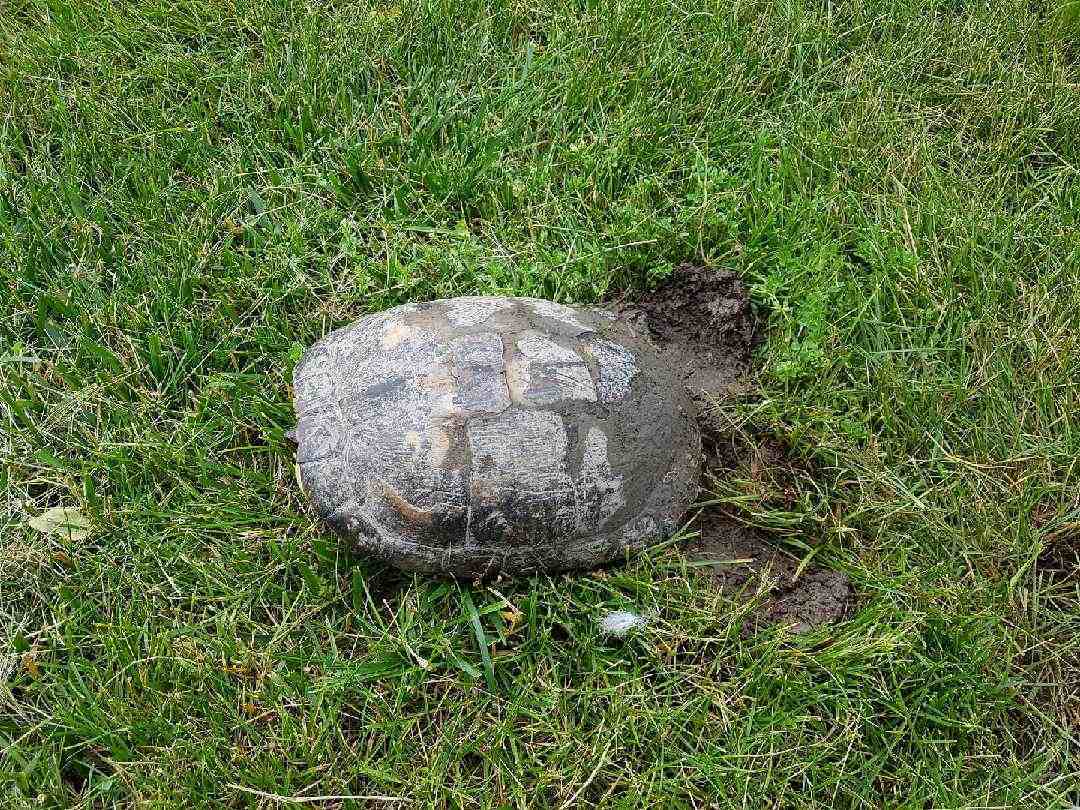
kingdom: Animalia
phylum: Chordata
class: Testudines
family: Emydidae
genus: Trachemys
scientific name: Trachemys scripta
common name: Slider
